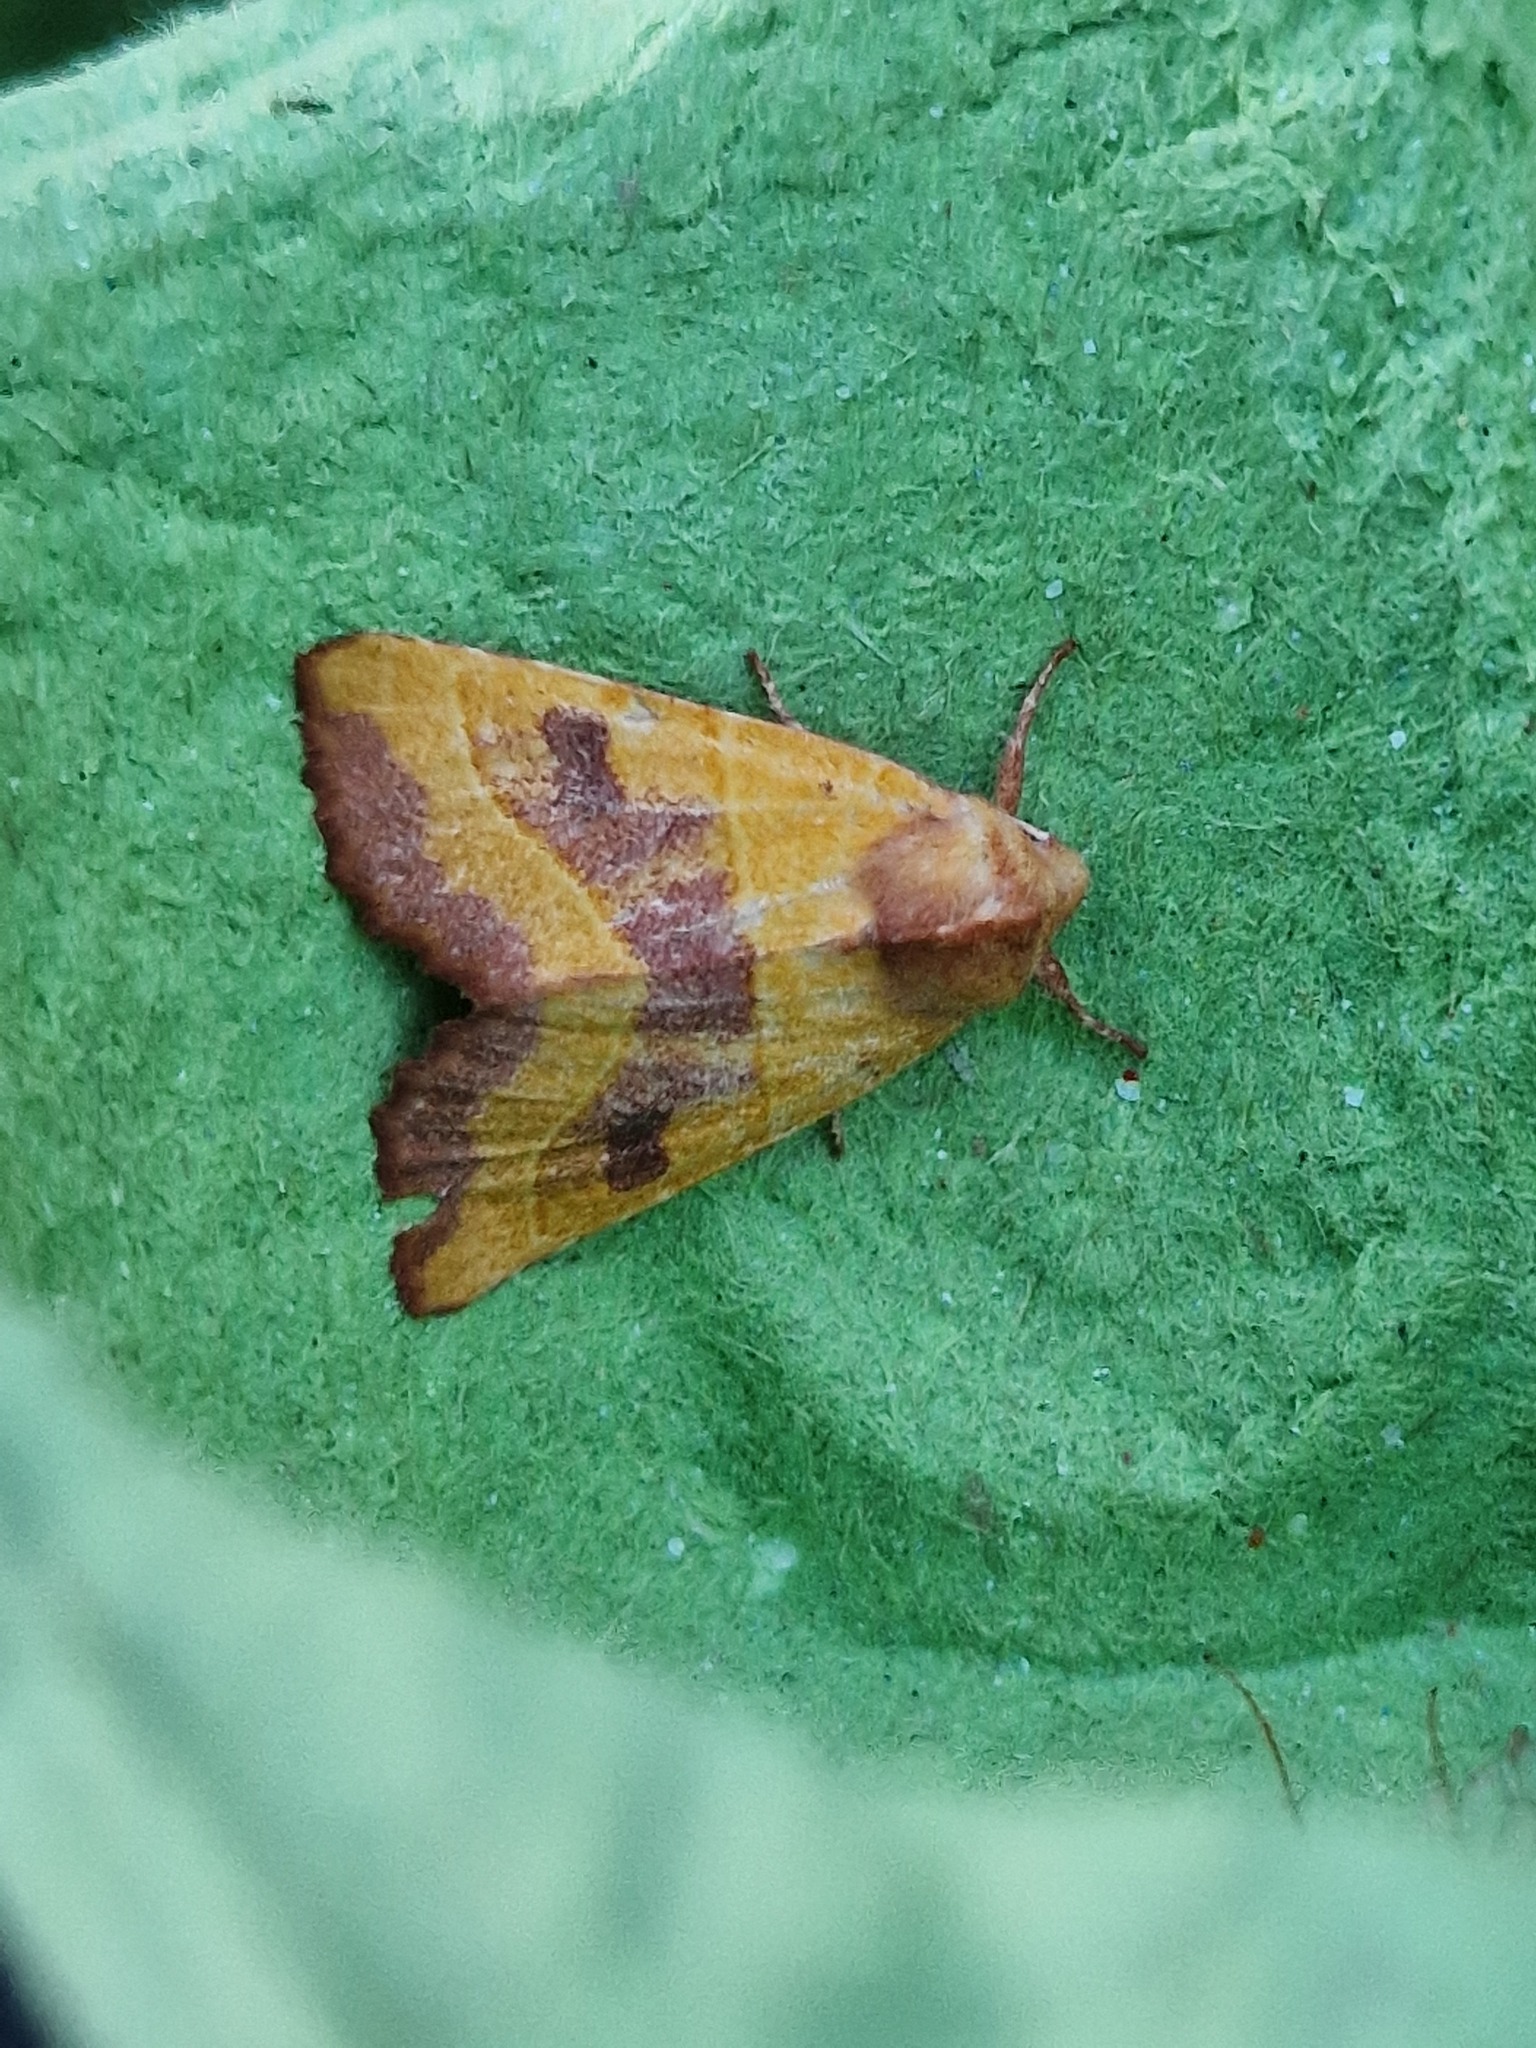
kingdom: Animalia
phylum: Arthropoda
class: Insecta
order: Lepidoptera
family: Noctuidae
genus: Atethmia
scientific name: Atethmia centrago
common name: Centre-barred sallow
